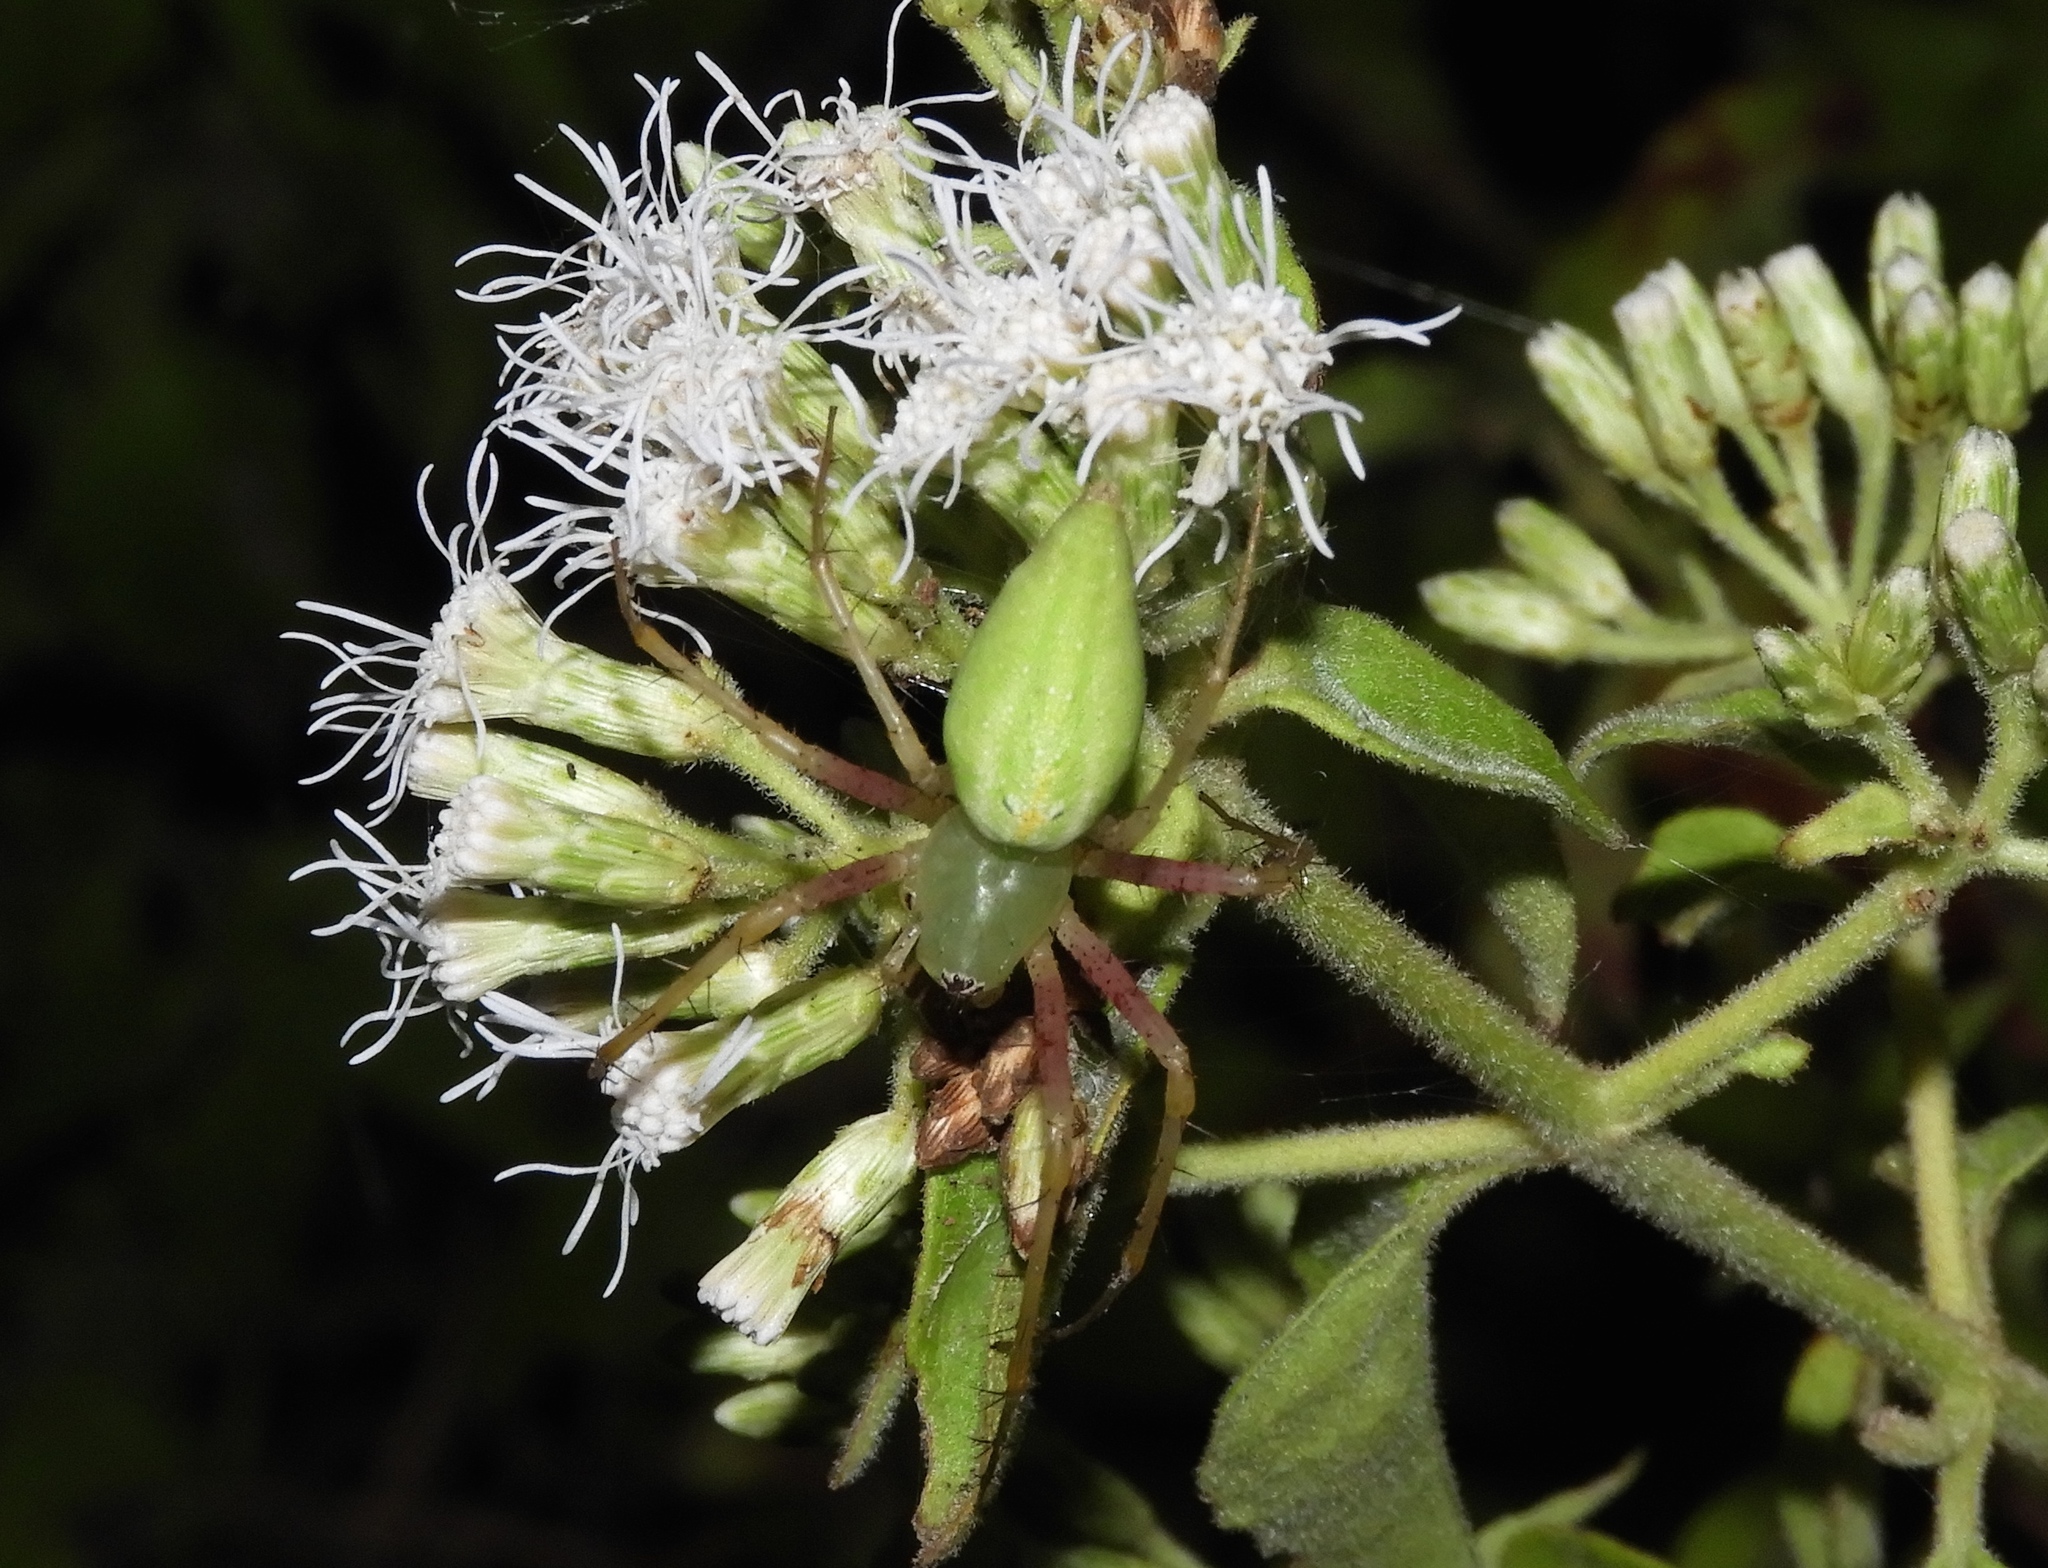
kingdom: Animalia
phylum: Arthropoda
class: Arachnida
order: Araneae
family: Oxyopidae
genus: Peucetia
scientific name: Peucetia
